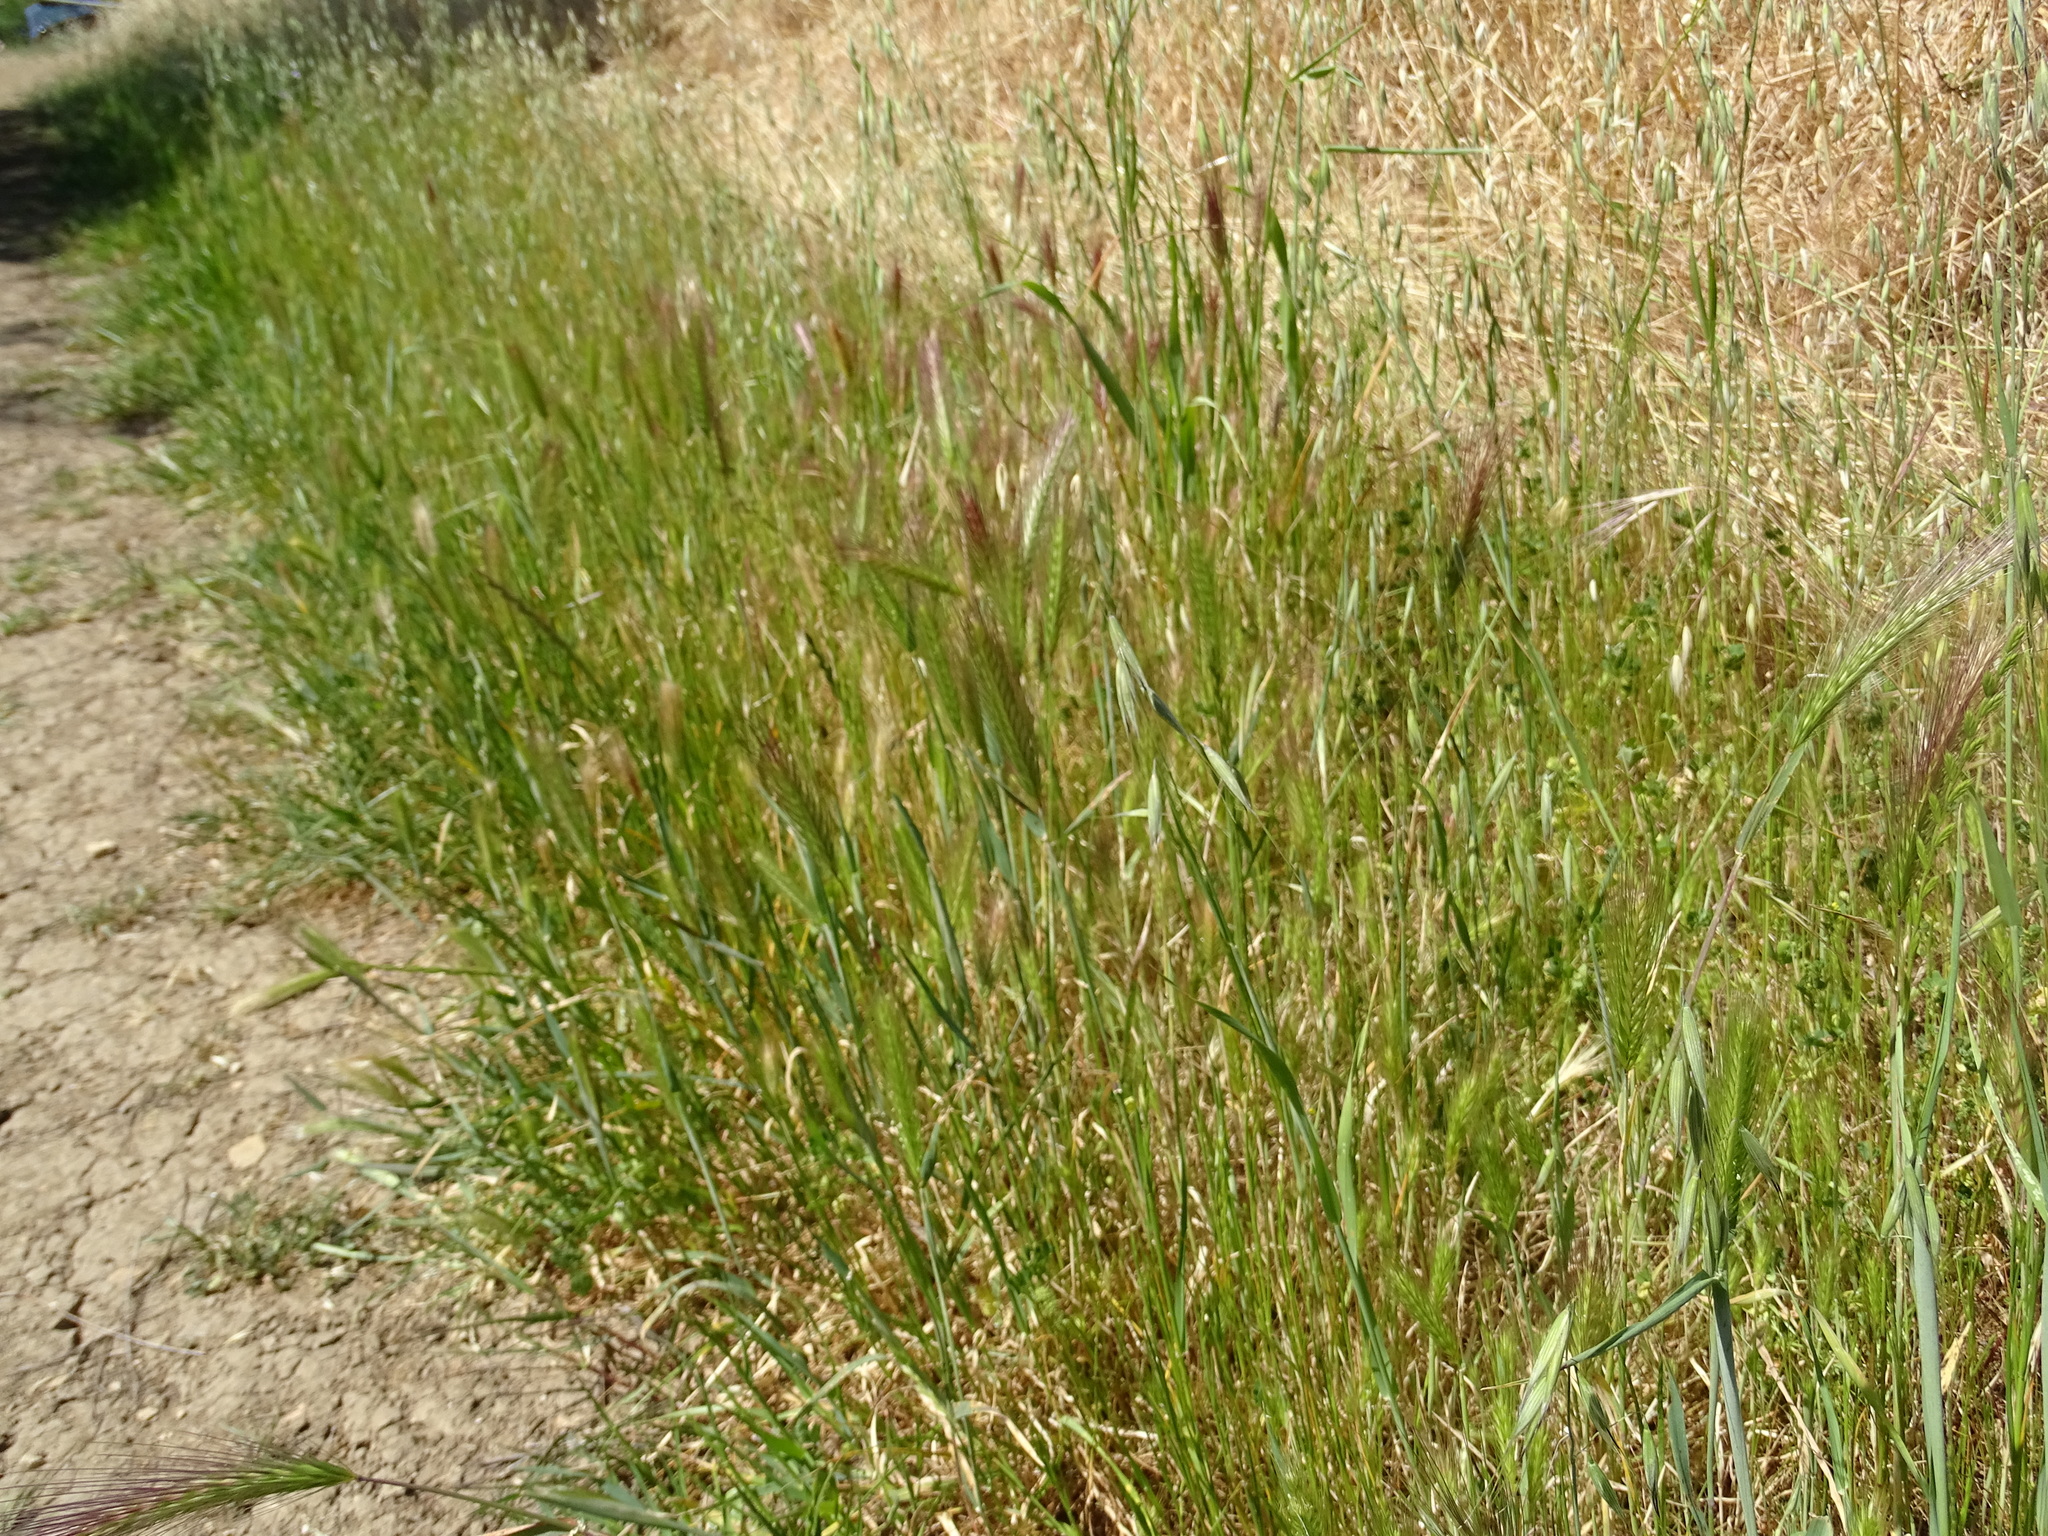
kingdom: Plantae
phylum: Tracheophyta
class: Liliopsida
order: Poales
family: Poaceae
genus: Hordeum
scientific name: Hordeum murinum
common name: Wall barley
